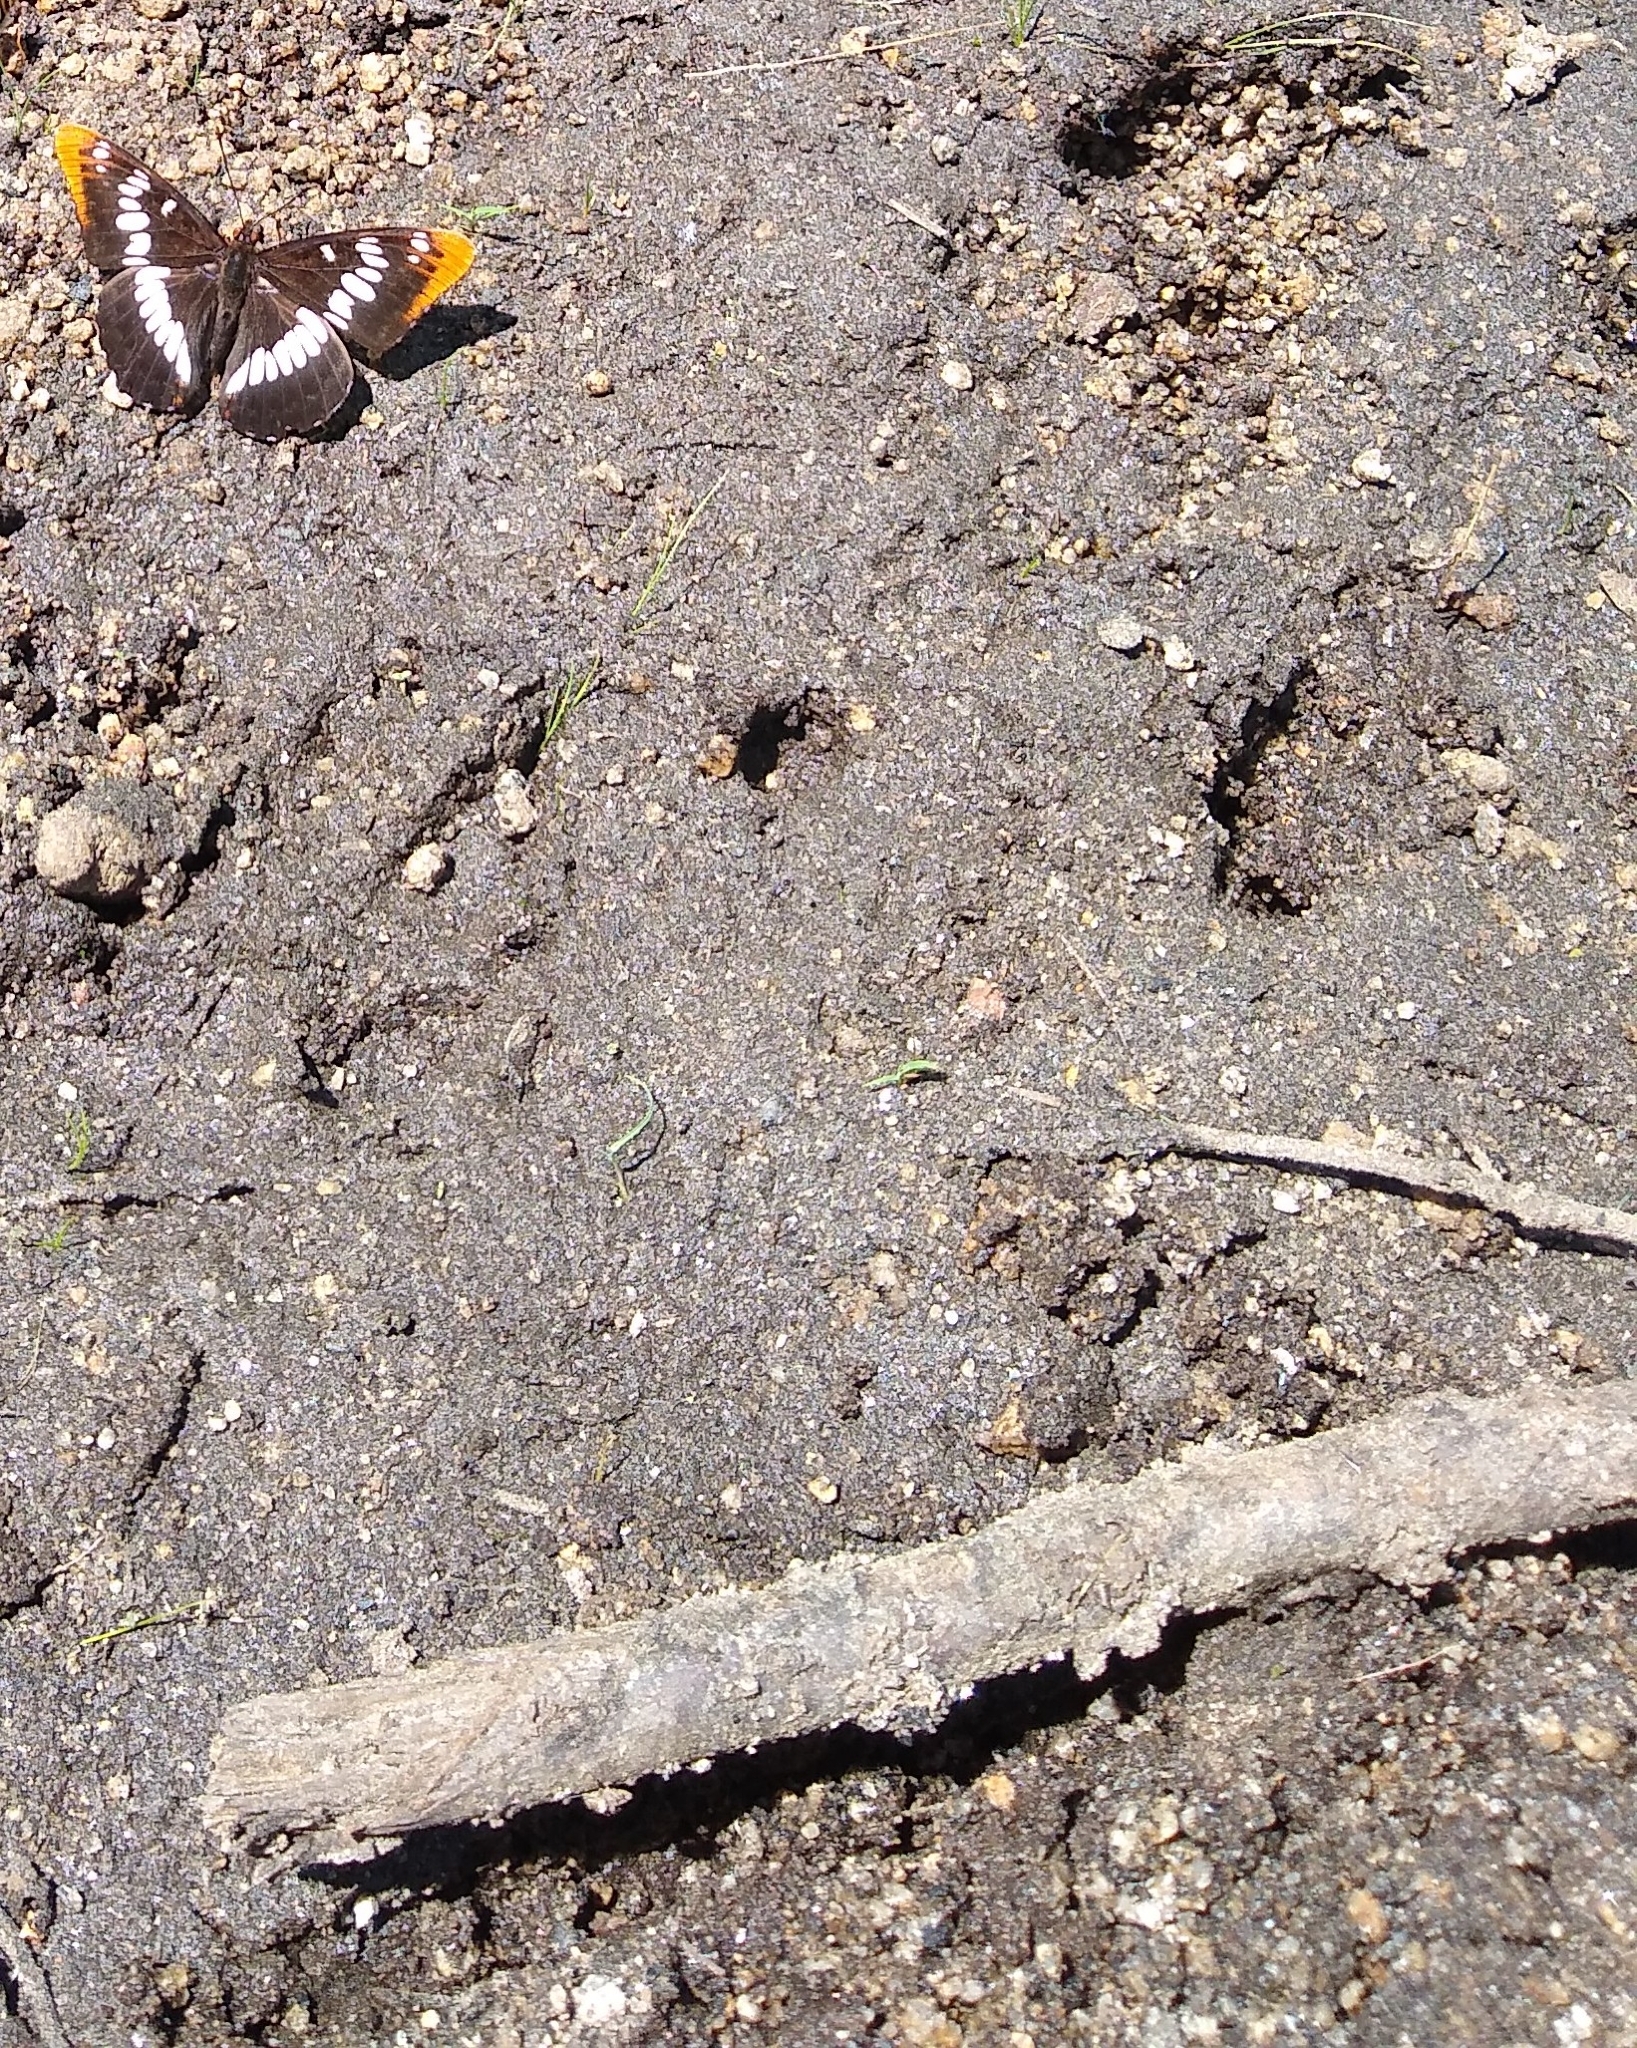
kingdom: Animalia
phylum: Arthropoda
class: Insecta
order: Lepidoptera
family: Nymphalidae
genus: Limenitis
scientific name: Limenitis lorquini
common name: Lorquin's admiral
